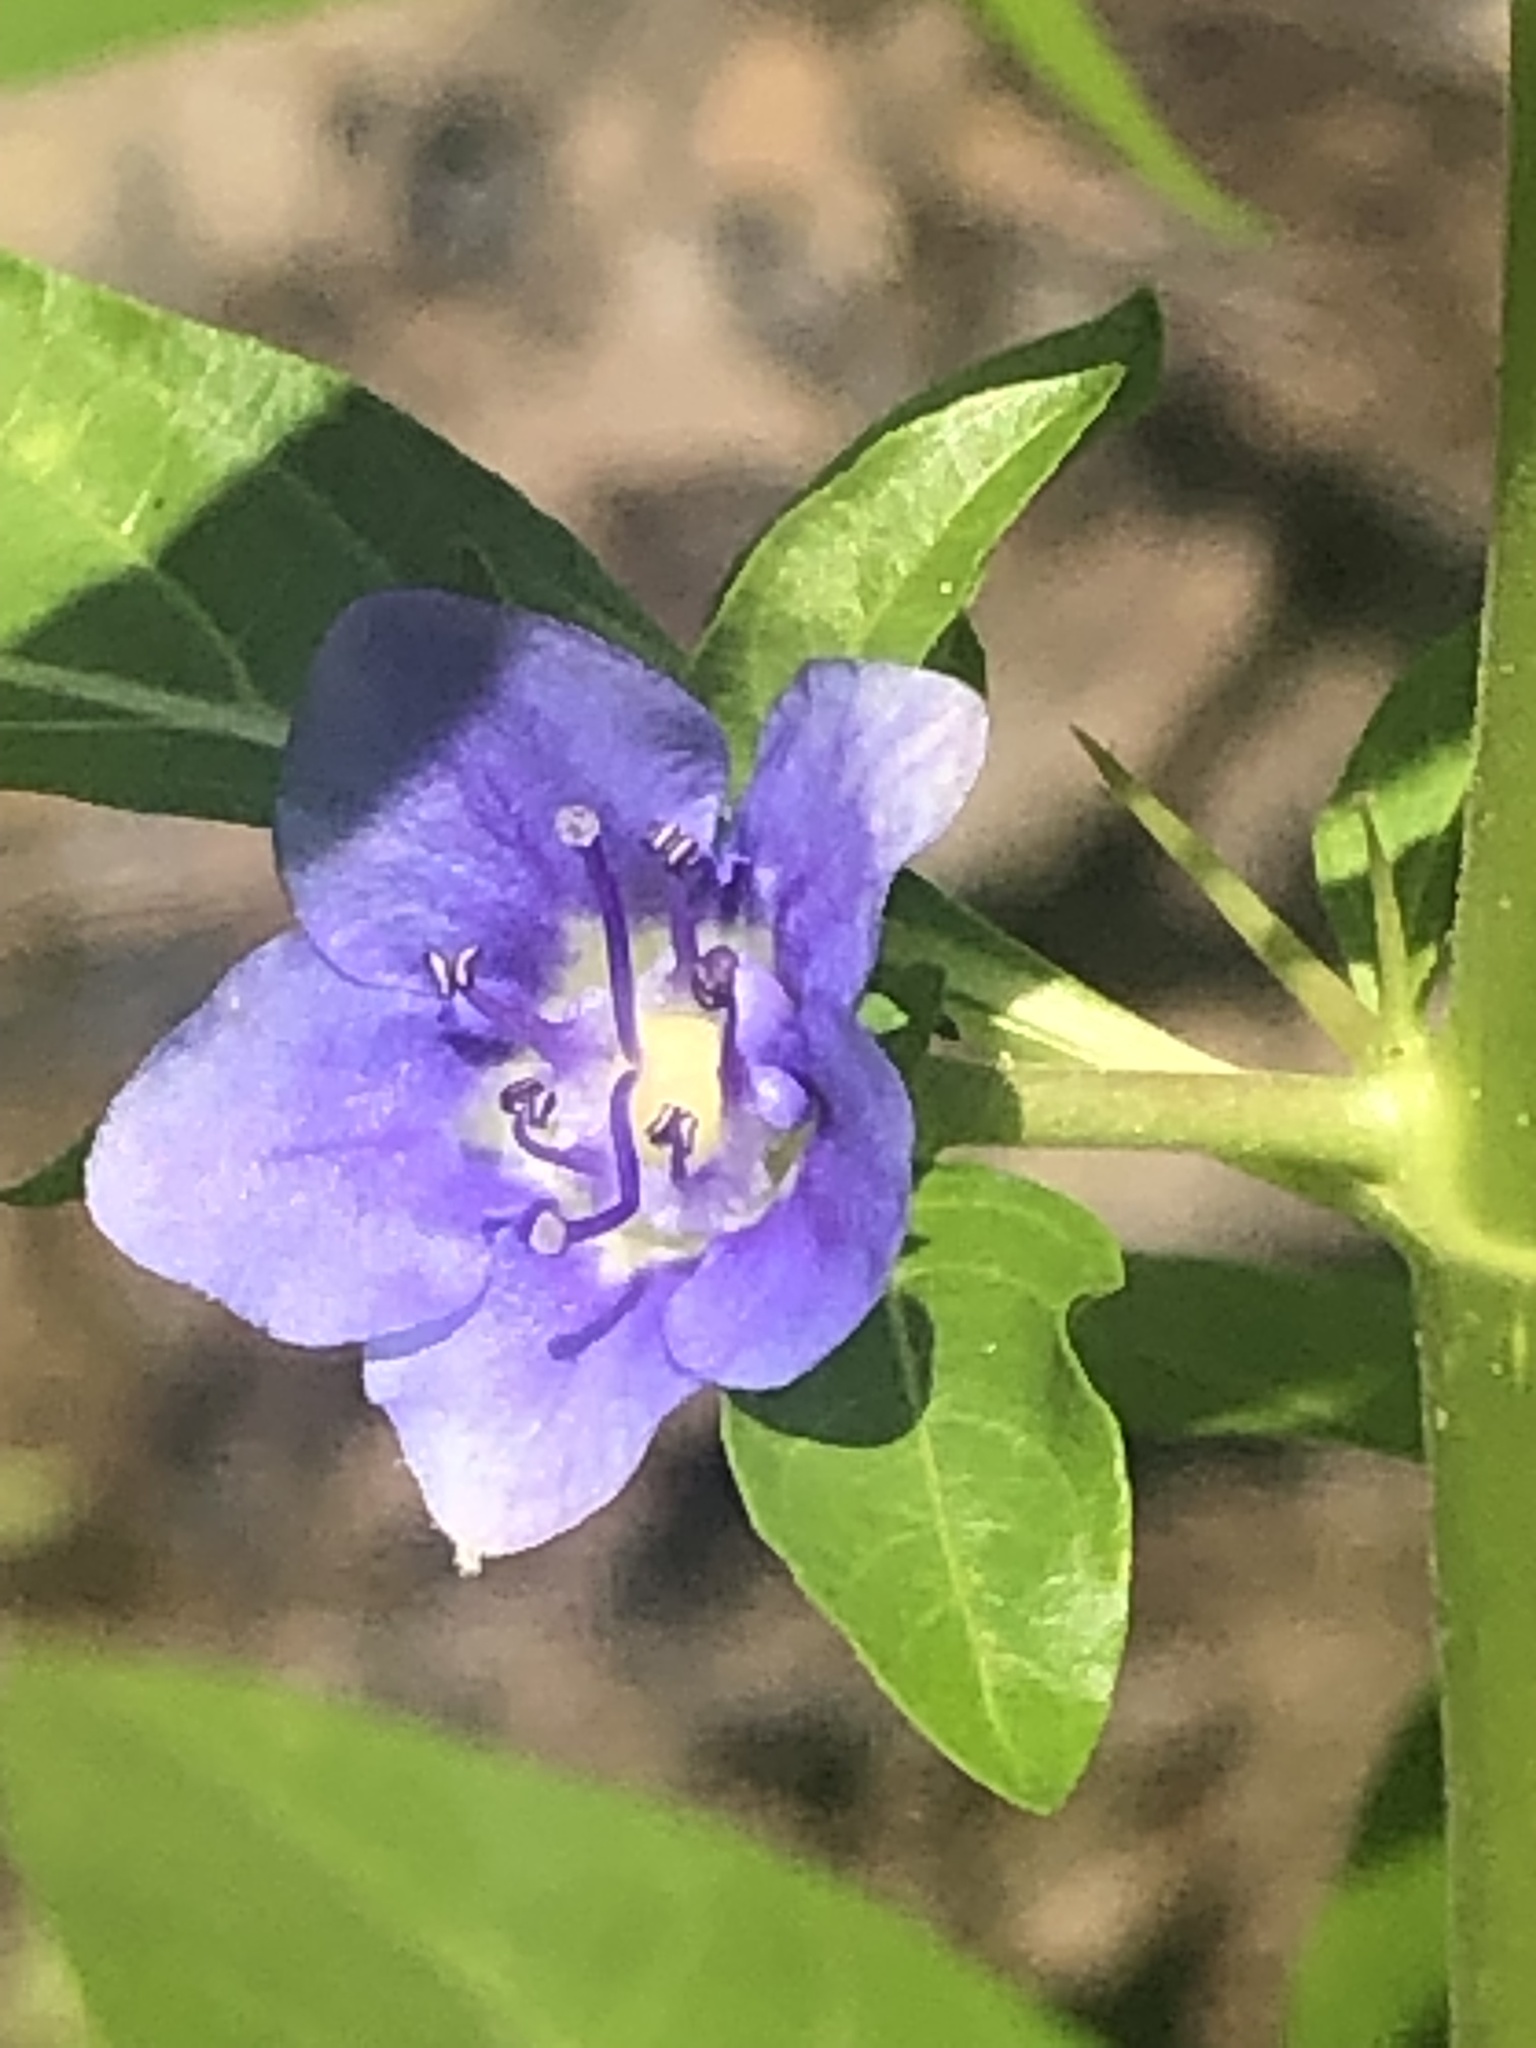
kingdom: Plantae
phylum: Tracheophyta
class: Magnoliopsida
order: Solanales
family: Hydroleaceae
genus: Hydrolea
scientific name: Hydrolea uniflora
